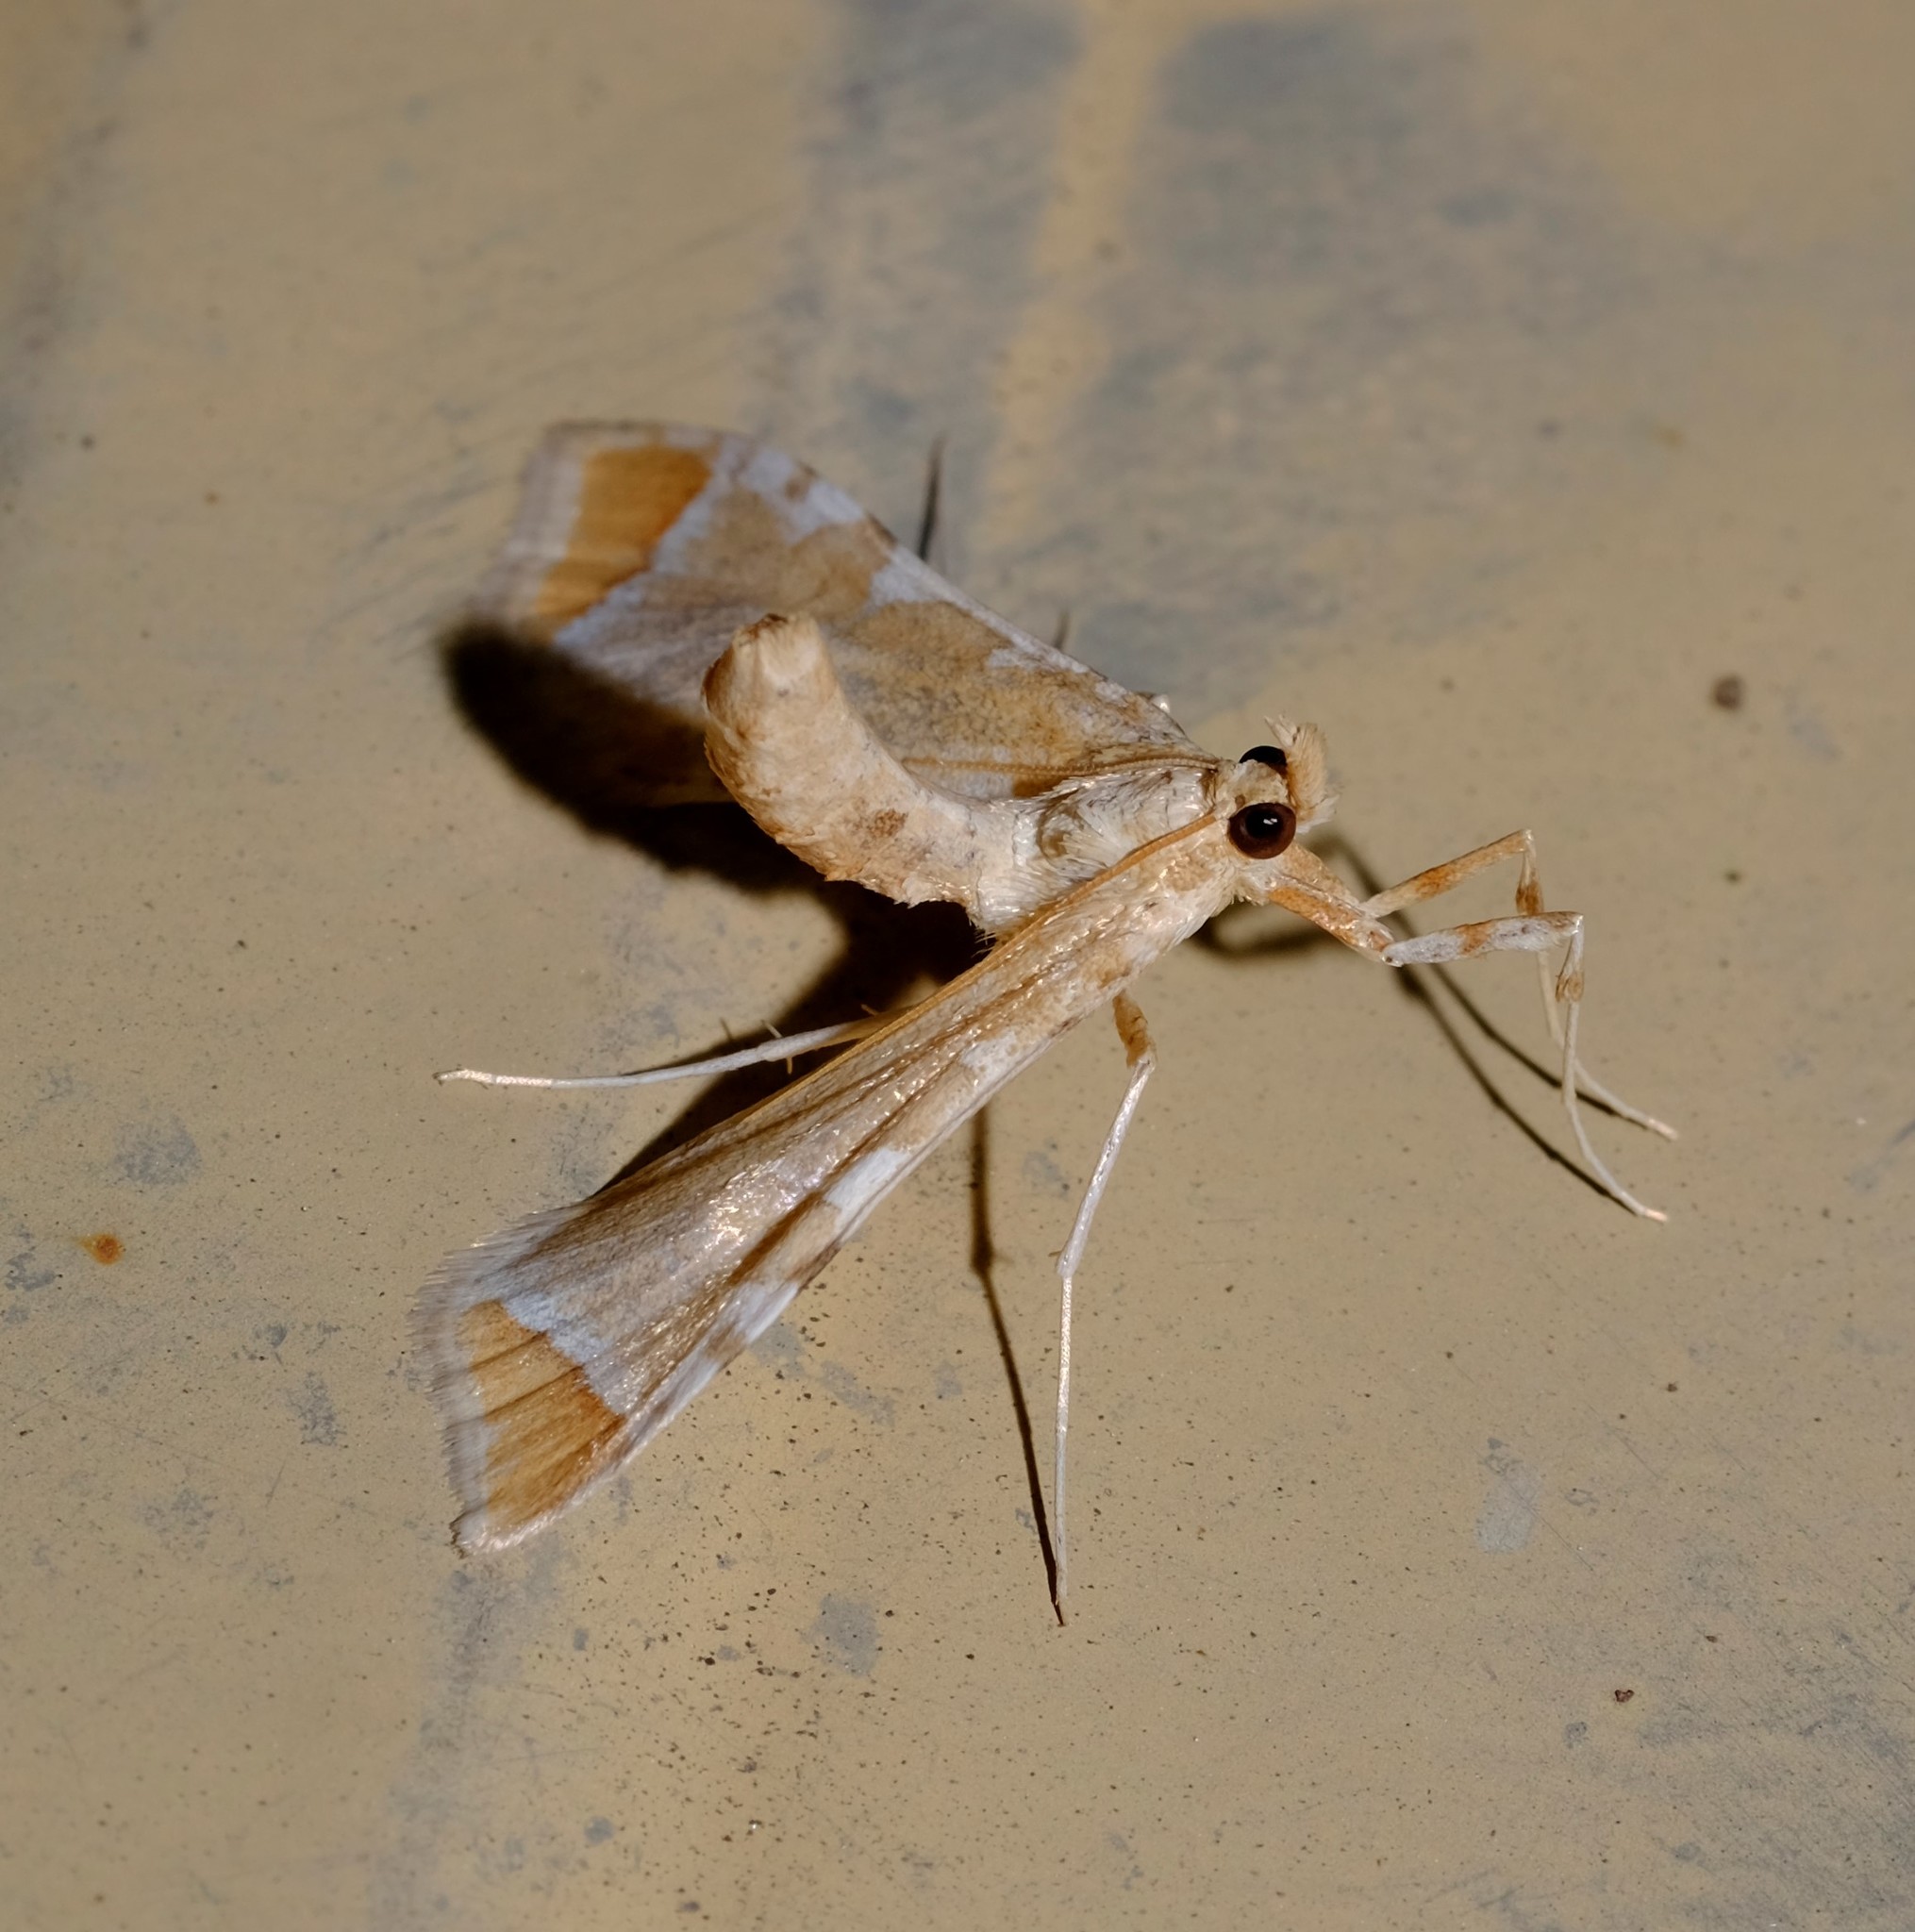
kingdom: Animalia
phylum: Arthropoda
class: Insecta
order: Lepidoptera
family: Crambidae
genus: Sceliodes
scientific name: Sceliodes cordalis
